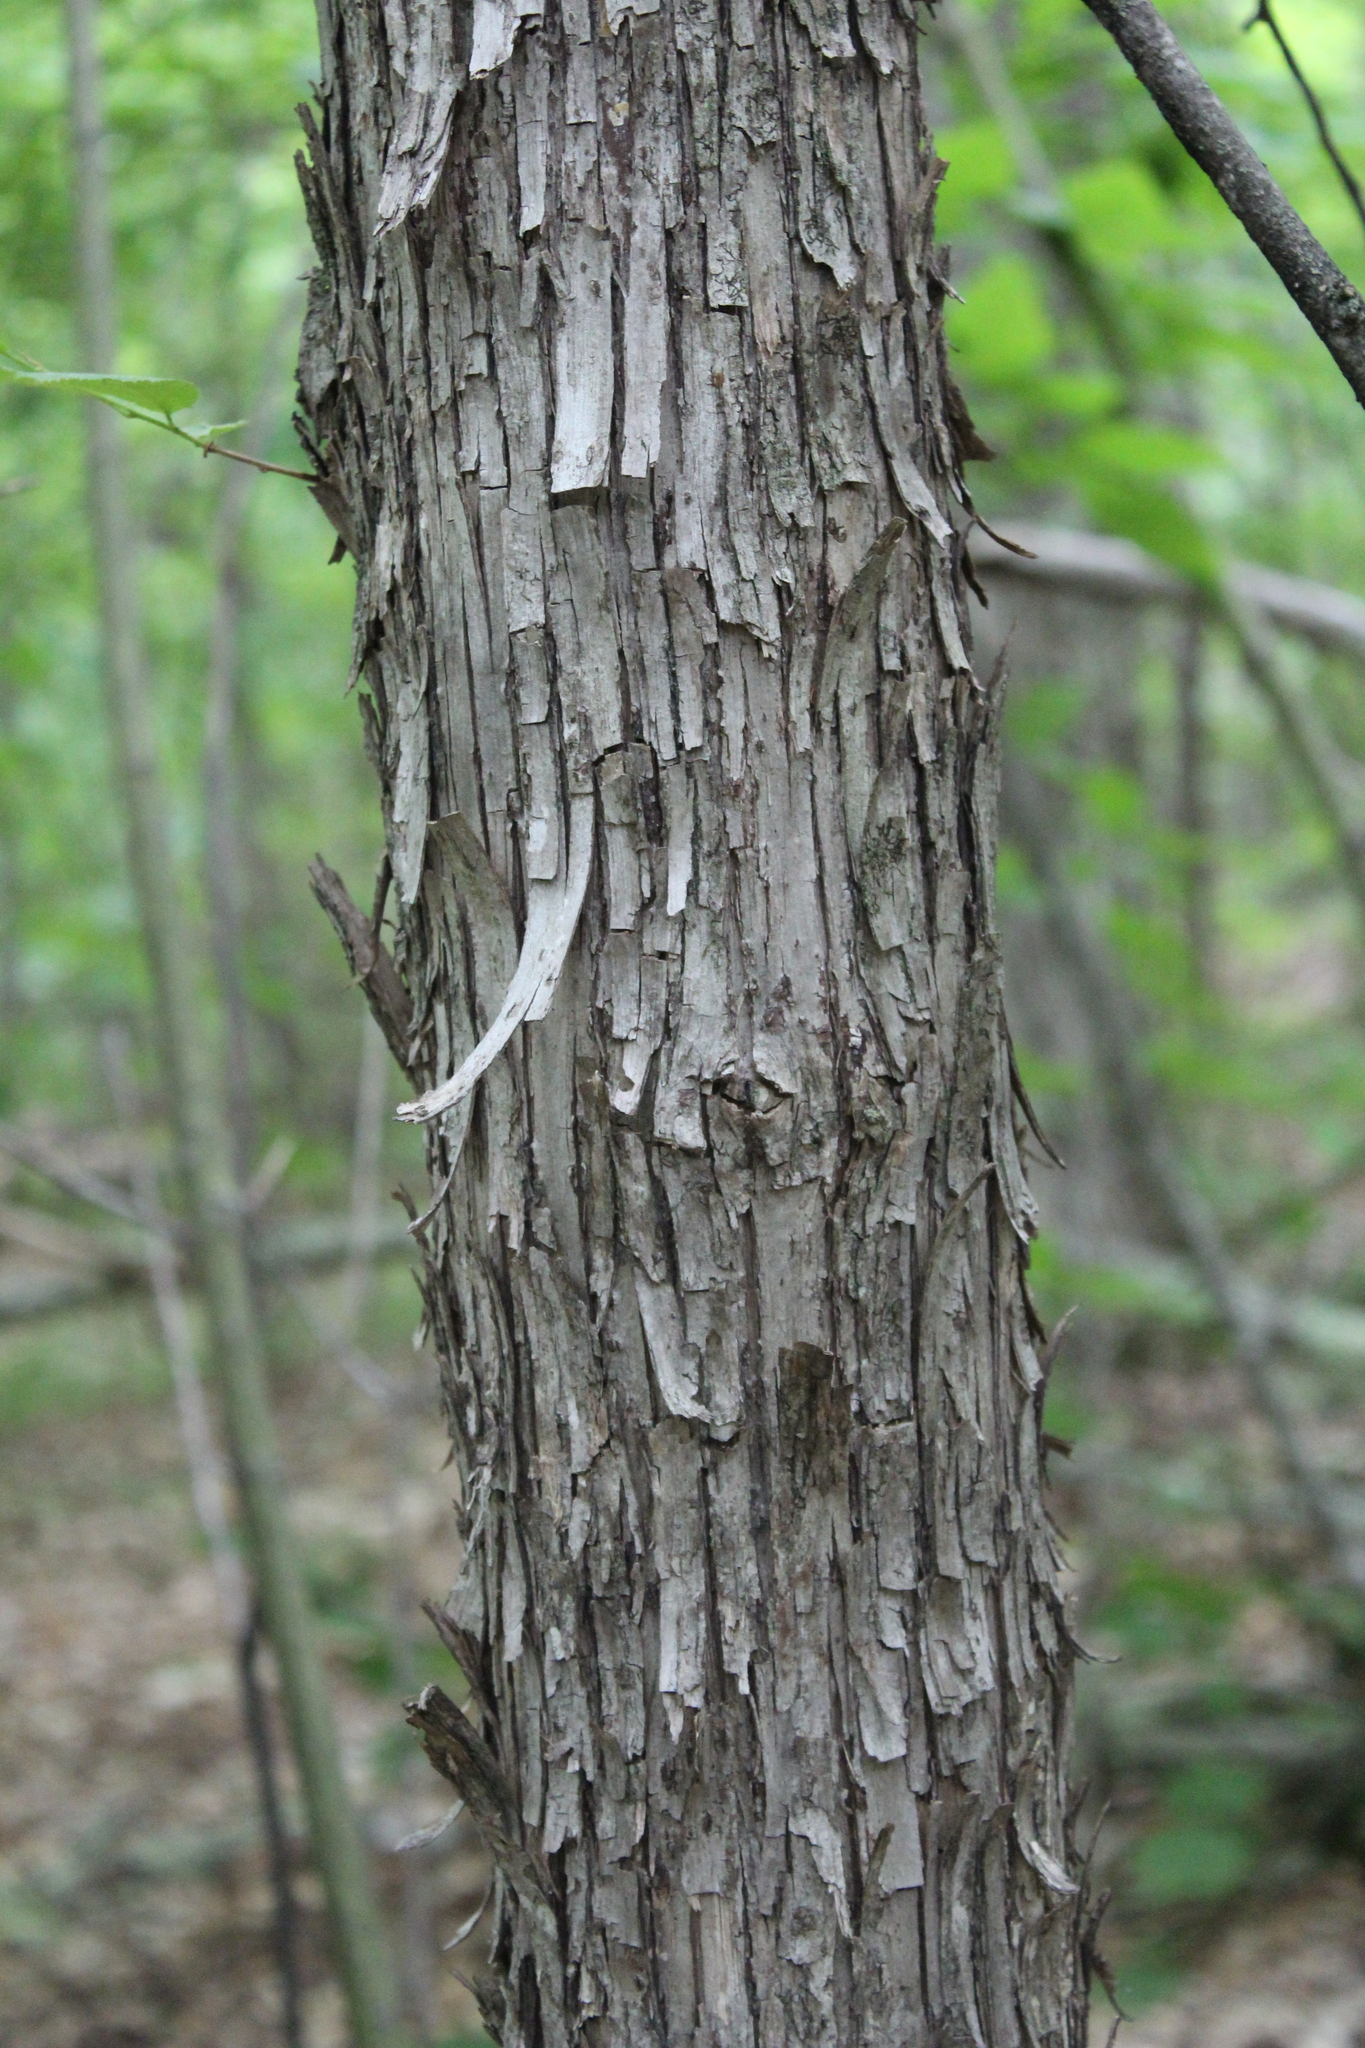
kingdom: Plantae
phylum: Tracheophyta
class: Magnoliopsida
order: Fagales
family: Betulaceae
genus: Ostrya
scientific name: Ostrya virginiana
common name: Ironwood
